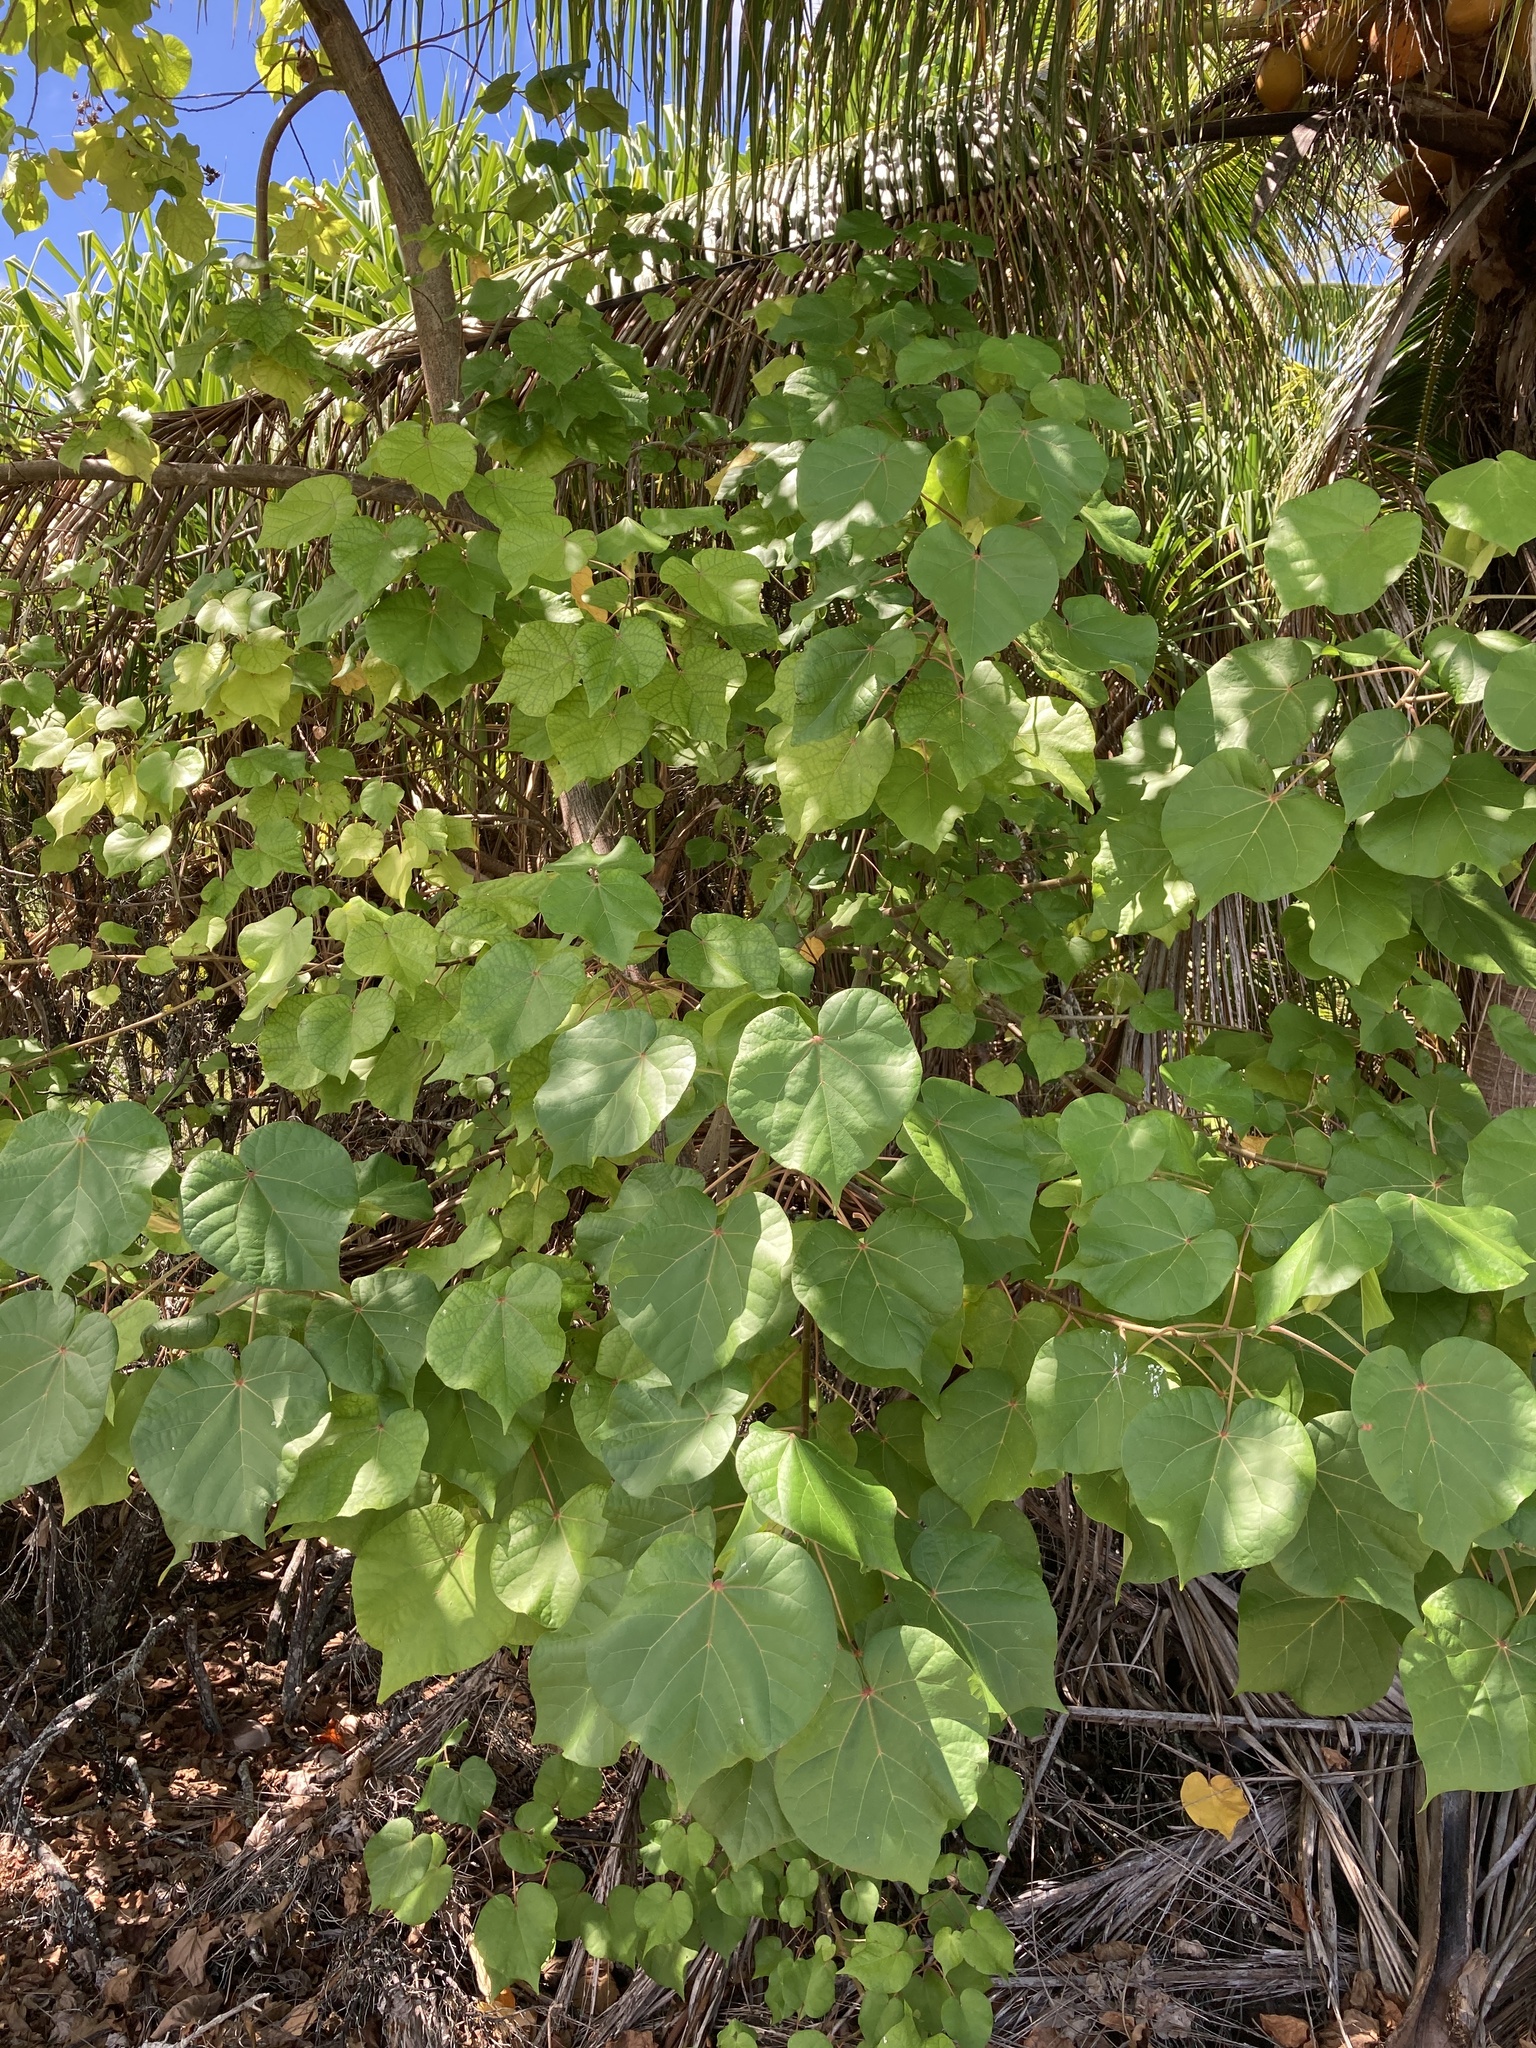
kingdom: Plantae
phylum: Tracheophyta
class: Magnoliopsida
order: Malvales
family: Malvaceae
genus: Talipariti
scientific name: Talipariti tiliaceum
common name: Sea hibiscus
